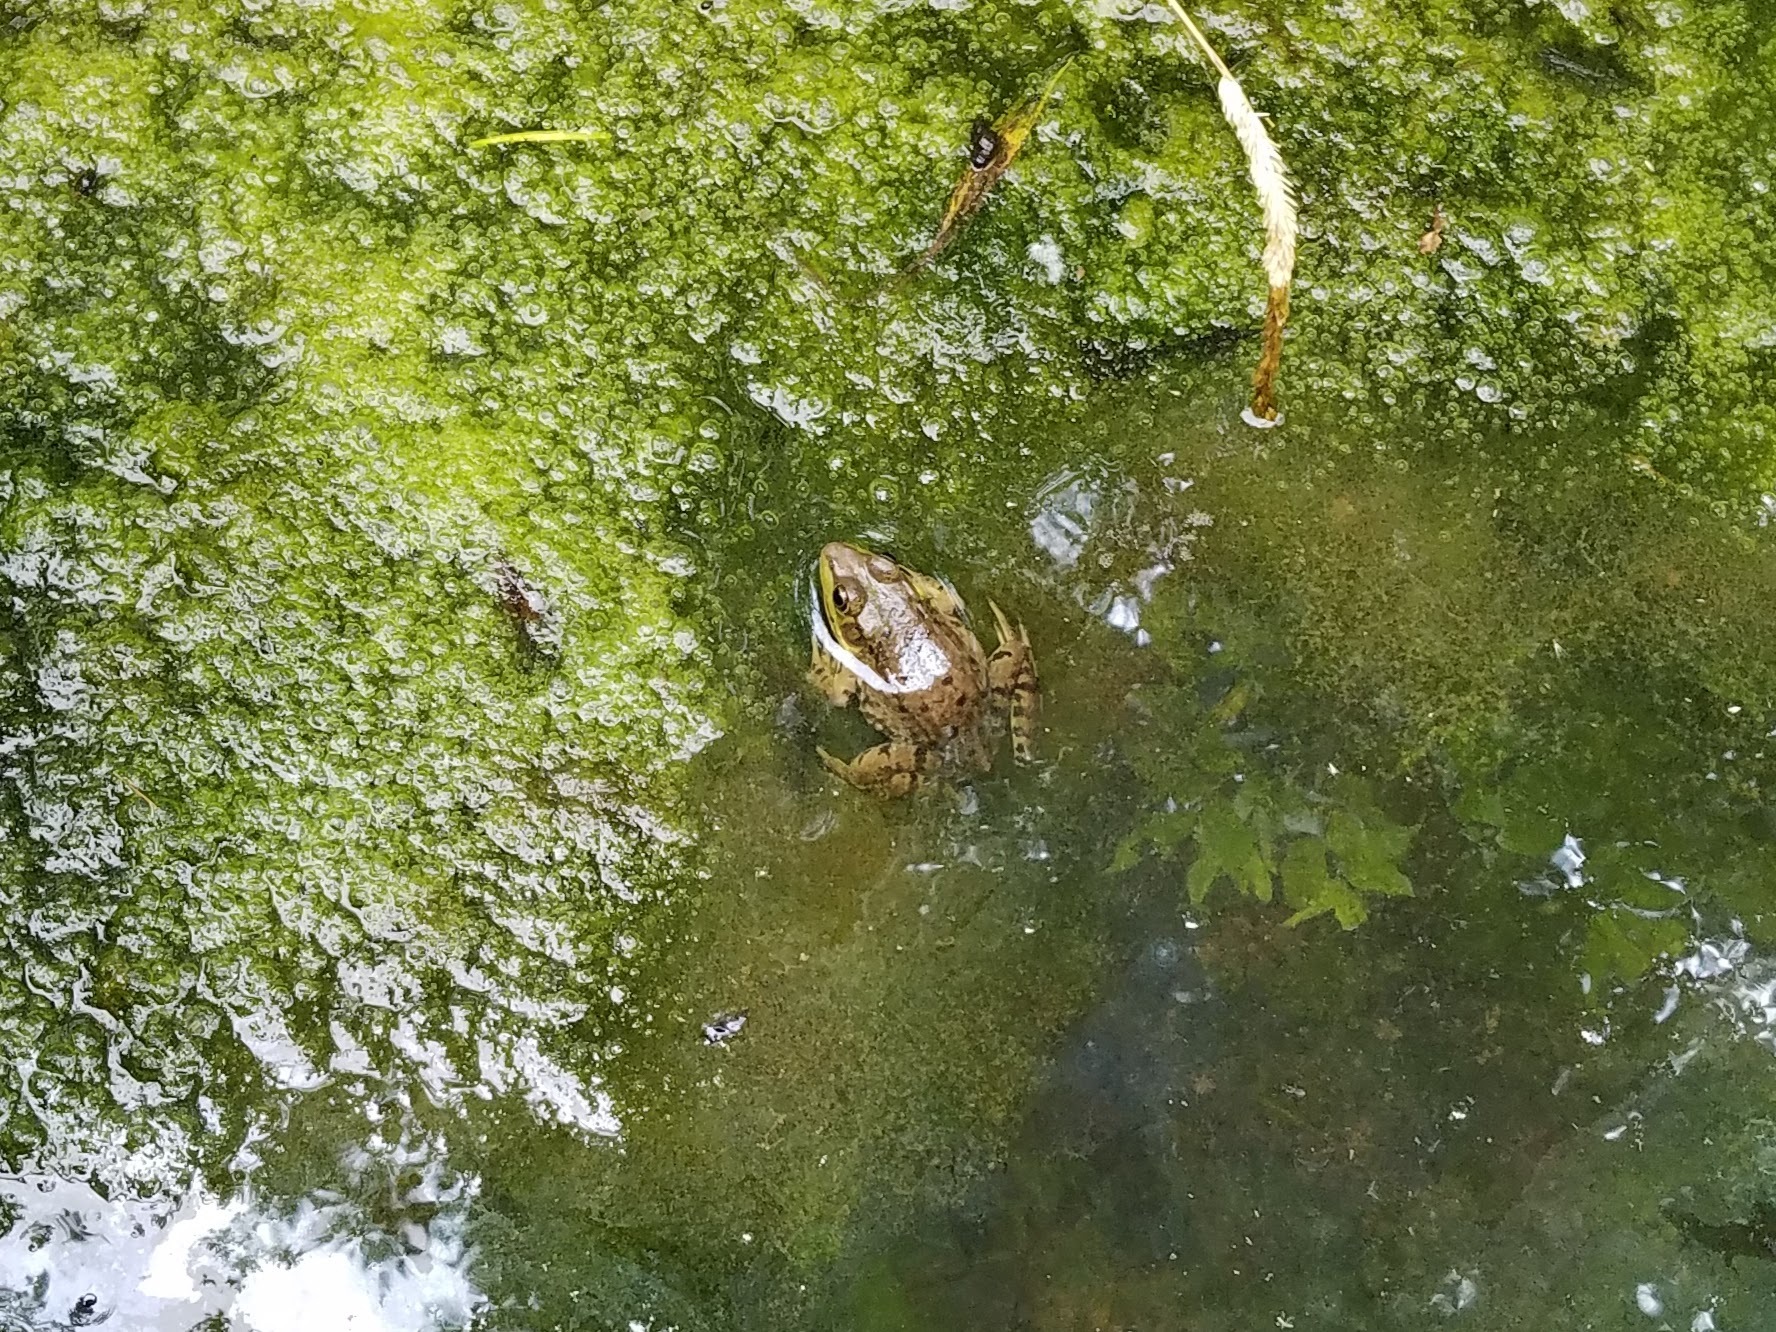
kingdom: Animalia
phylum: Chordata
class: Amphibia
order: Anura
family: Ranidae
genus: Lithobates
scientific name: Lithobates clamitans
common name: Green frog
